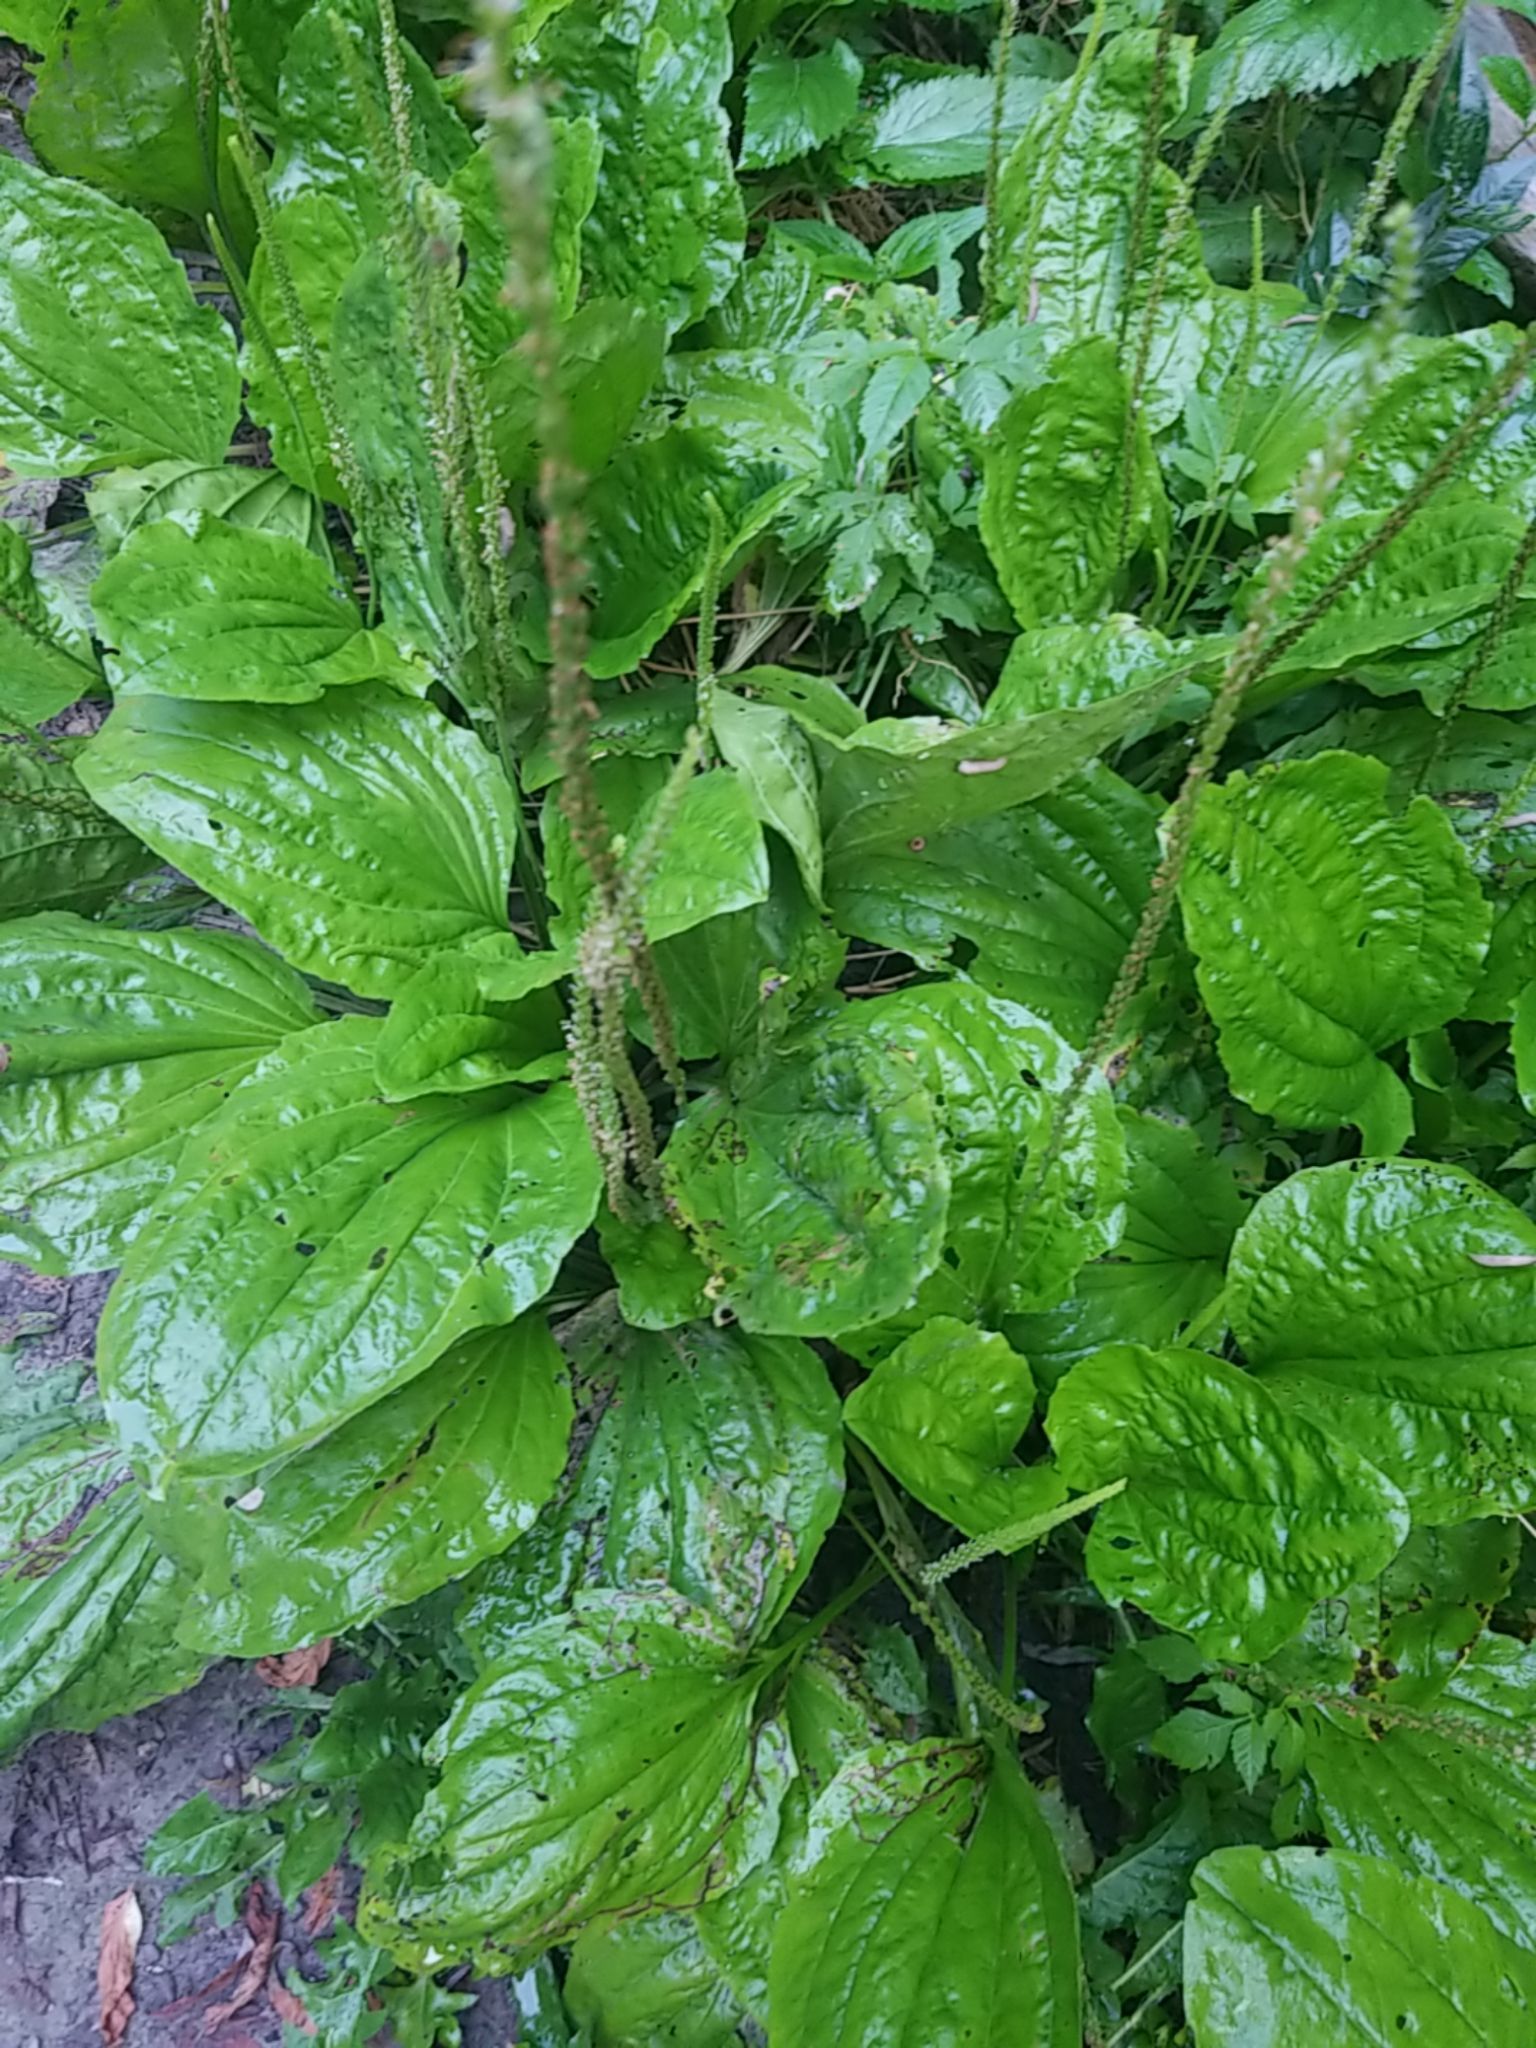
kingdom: Plantae
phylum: Tracheophyta
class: Magnoliopsida
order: Lamiales
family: Plantaginaceae
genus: Plantago
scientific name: Plantago major
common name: Common plantain
